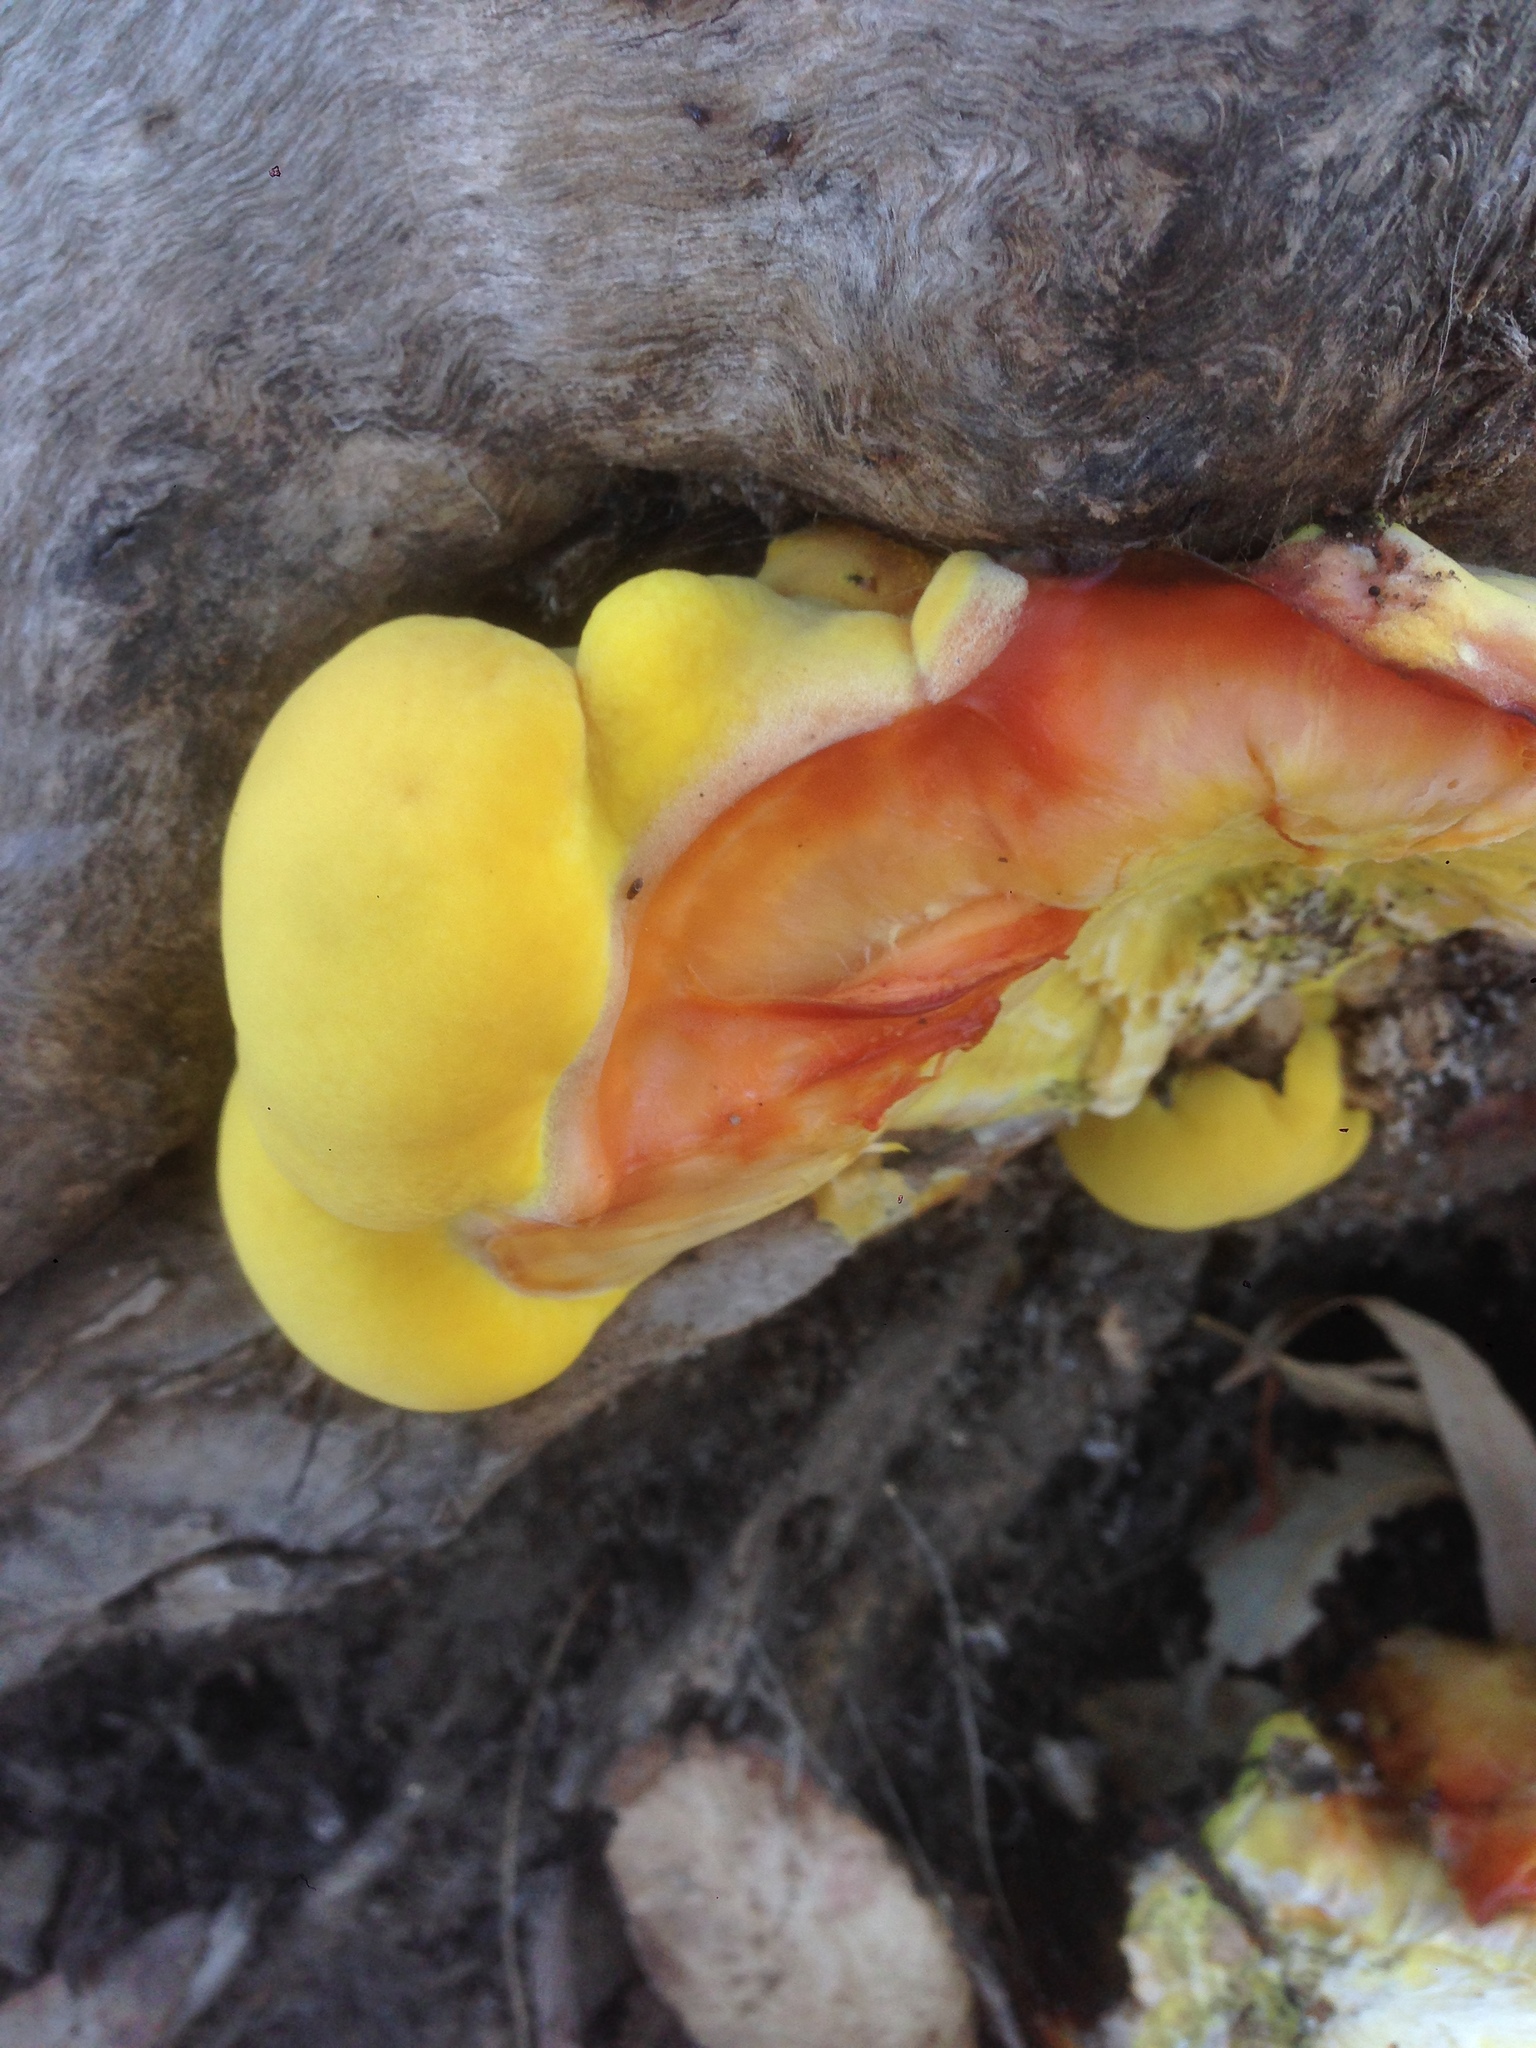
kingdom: Fungi
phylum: Basidiomycota
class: Agaricomycetes
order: Polyporales
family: Laetiporaceae
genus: Laetiporus
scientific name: Laetiporus gilbertsonii
